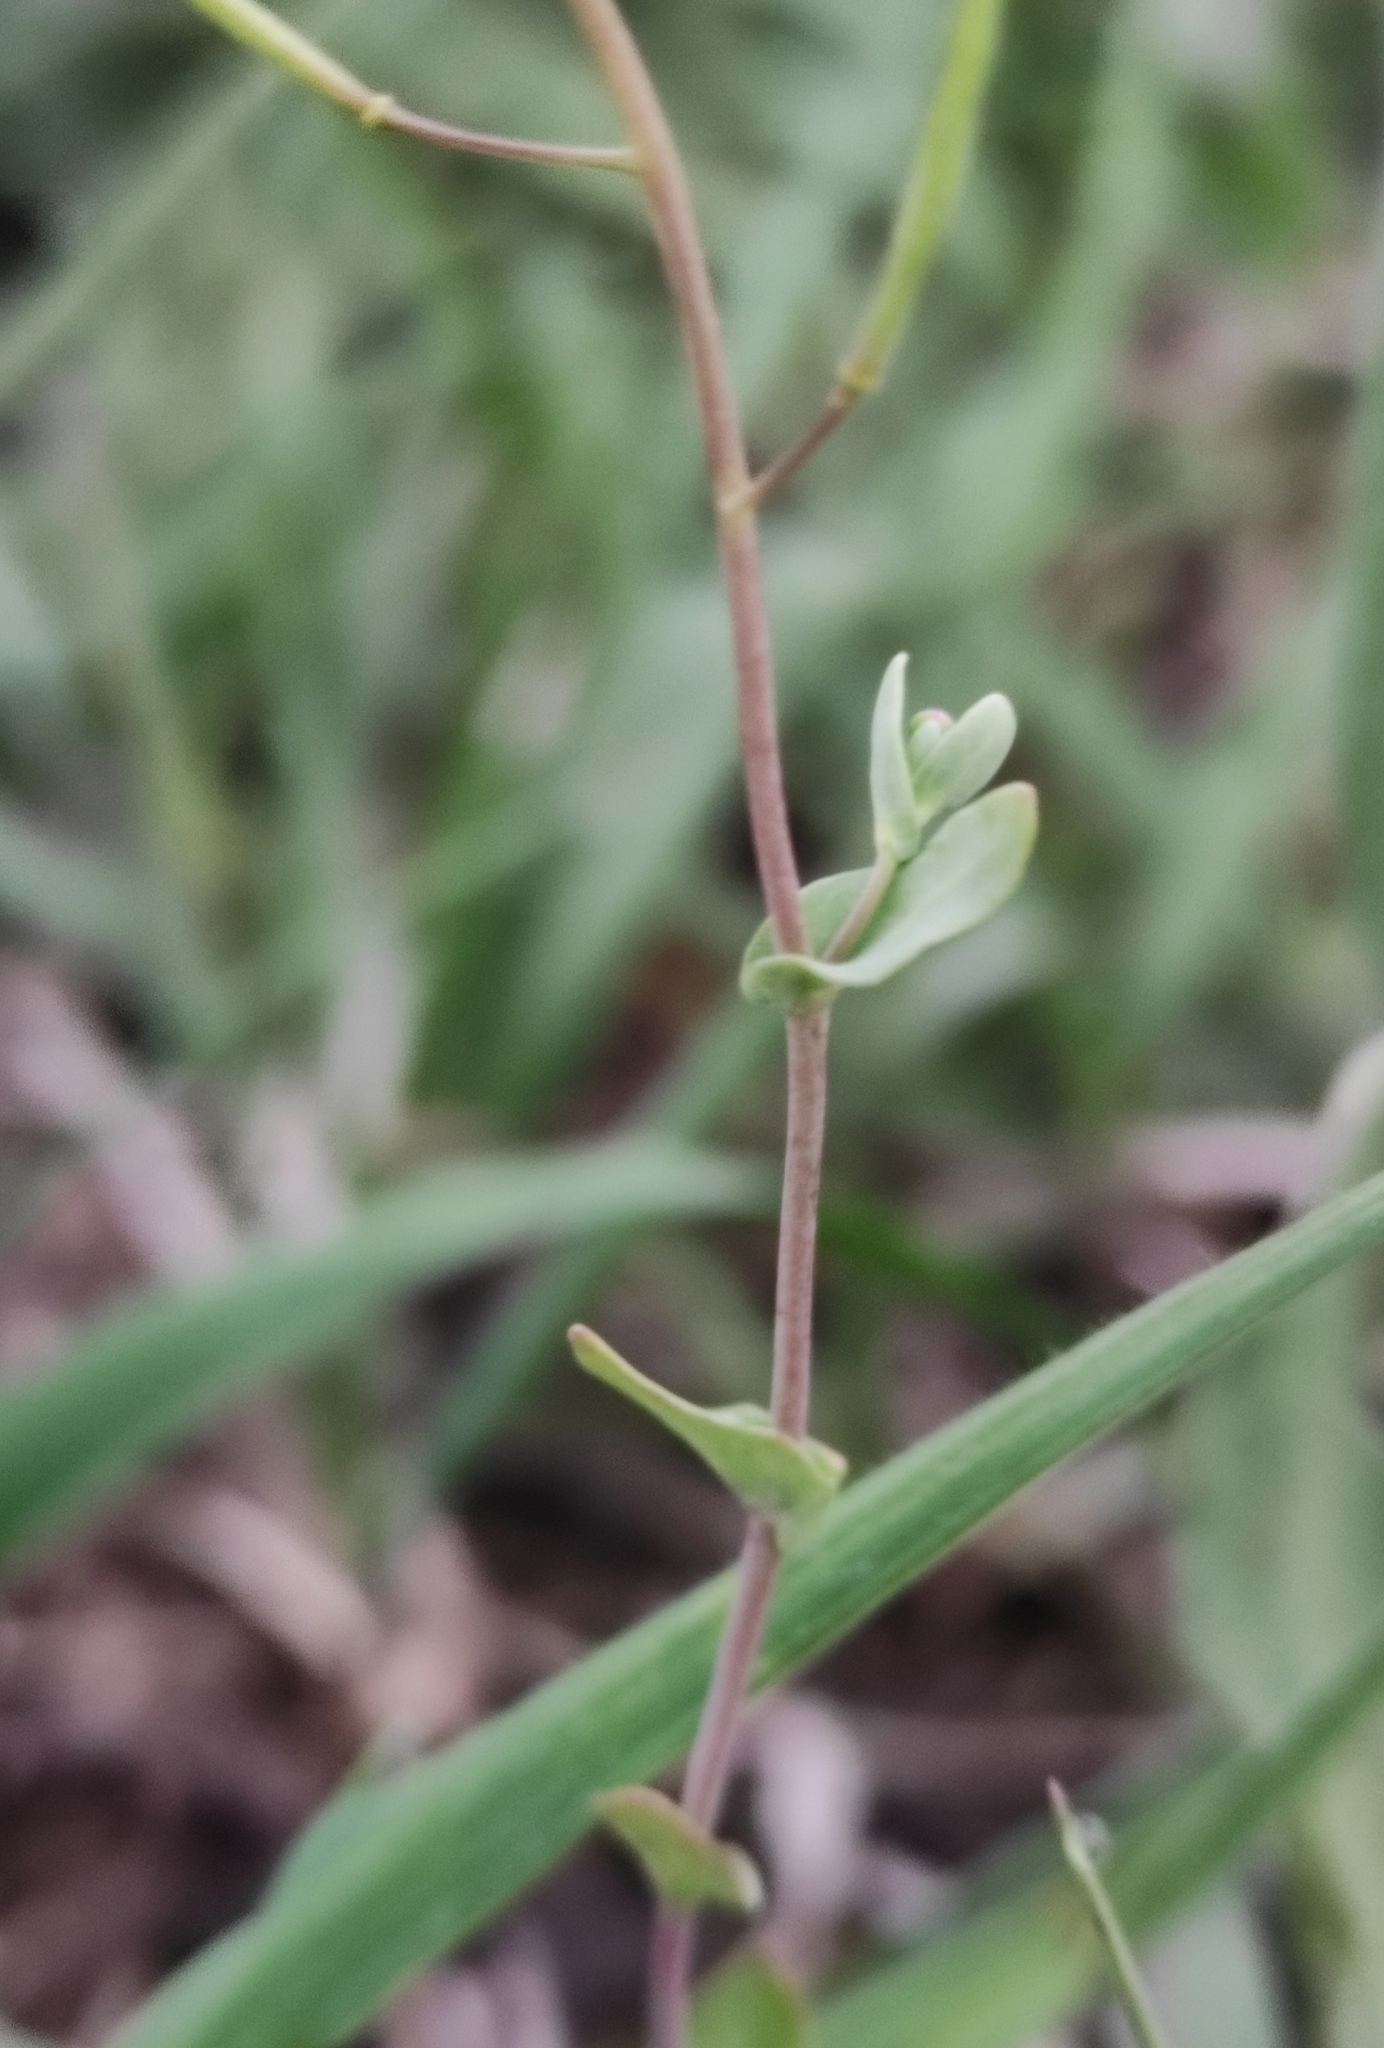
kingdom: Plantae
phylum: Tracheophyta
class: Magnoliopsida
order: Brassicales
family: Brassicaceae
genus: Eutrema
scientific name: Eutrema salsugineum
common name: Mouse-ear cress
